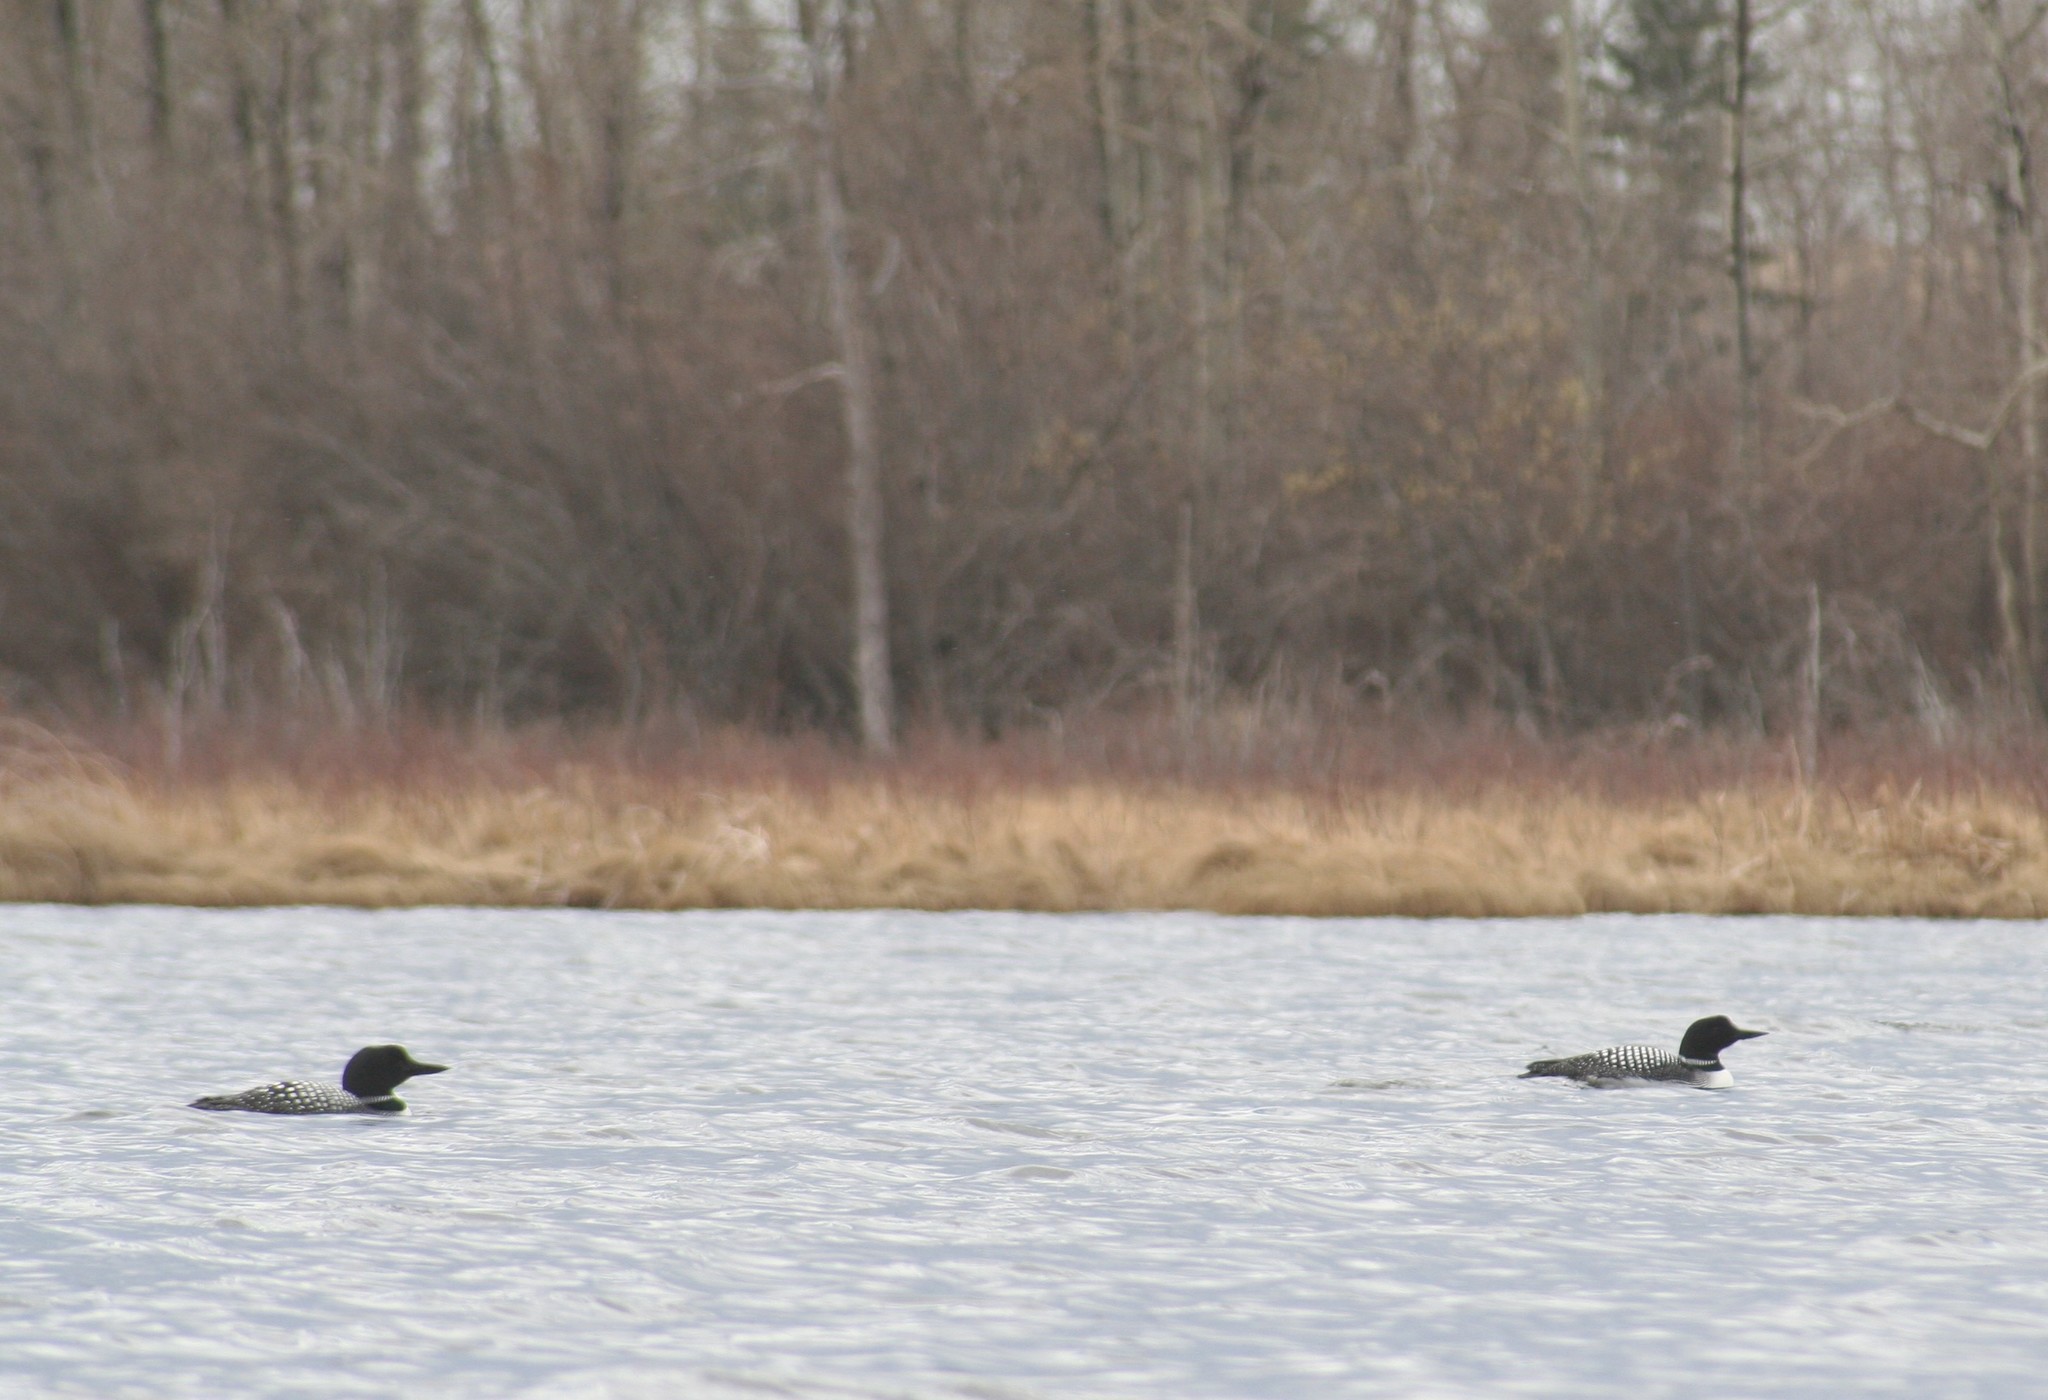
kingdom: Animalia
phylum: Chordata
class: Aves
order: Gaviiformes
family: Gaviidae
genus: Gavia
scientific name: Gavia immer
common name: Common loon
